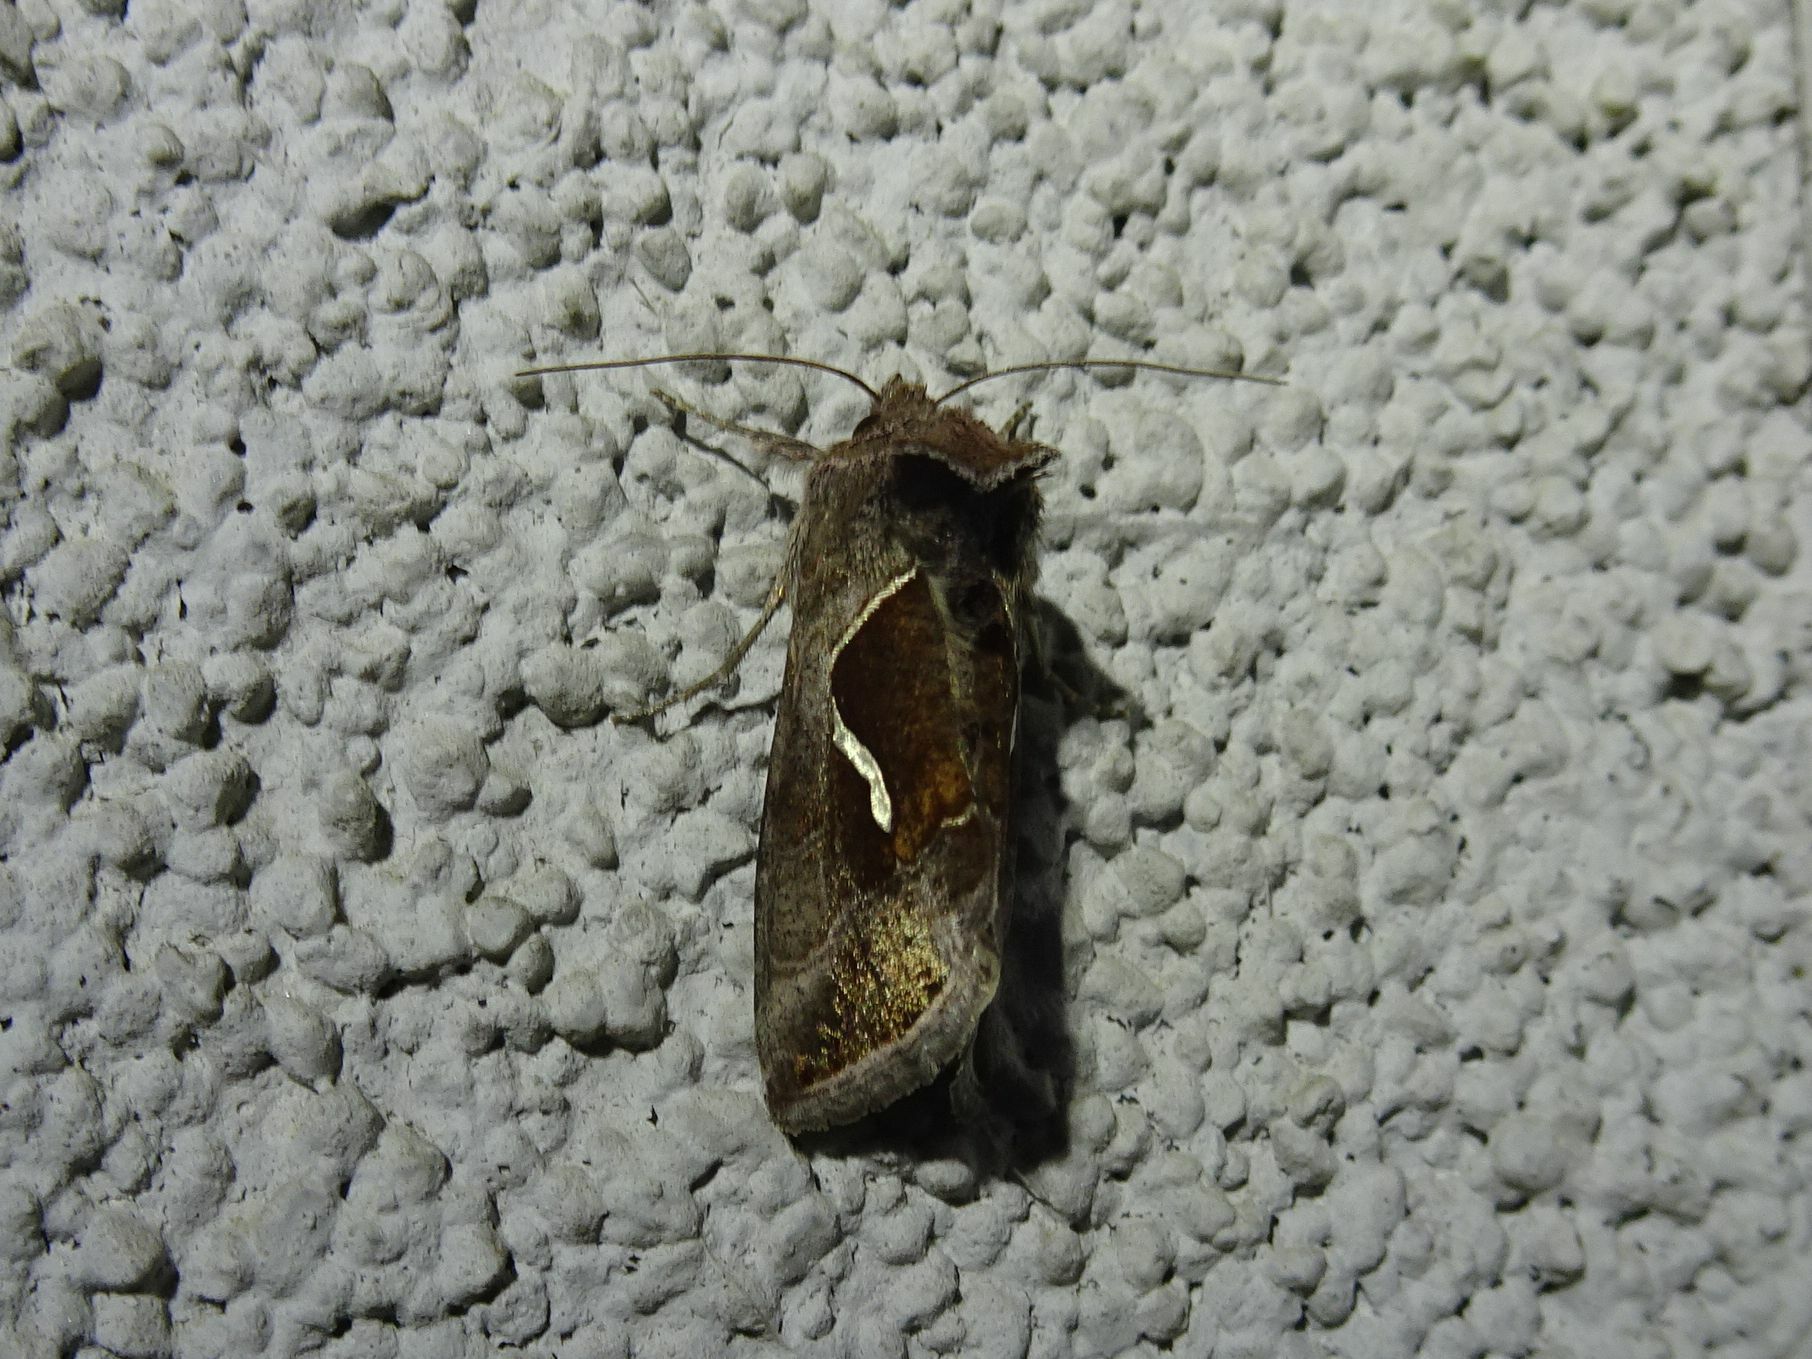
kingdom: Animalia
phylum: Arthropoda
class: Insecta
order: Lepidoptera
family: Noctuidae
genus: Macdunnoughia
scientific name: Macdunnoughia confusa
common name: Dewick's plusia
